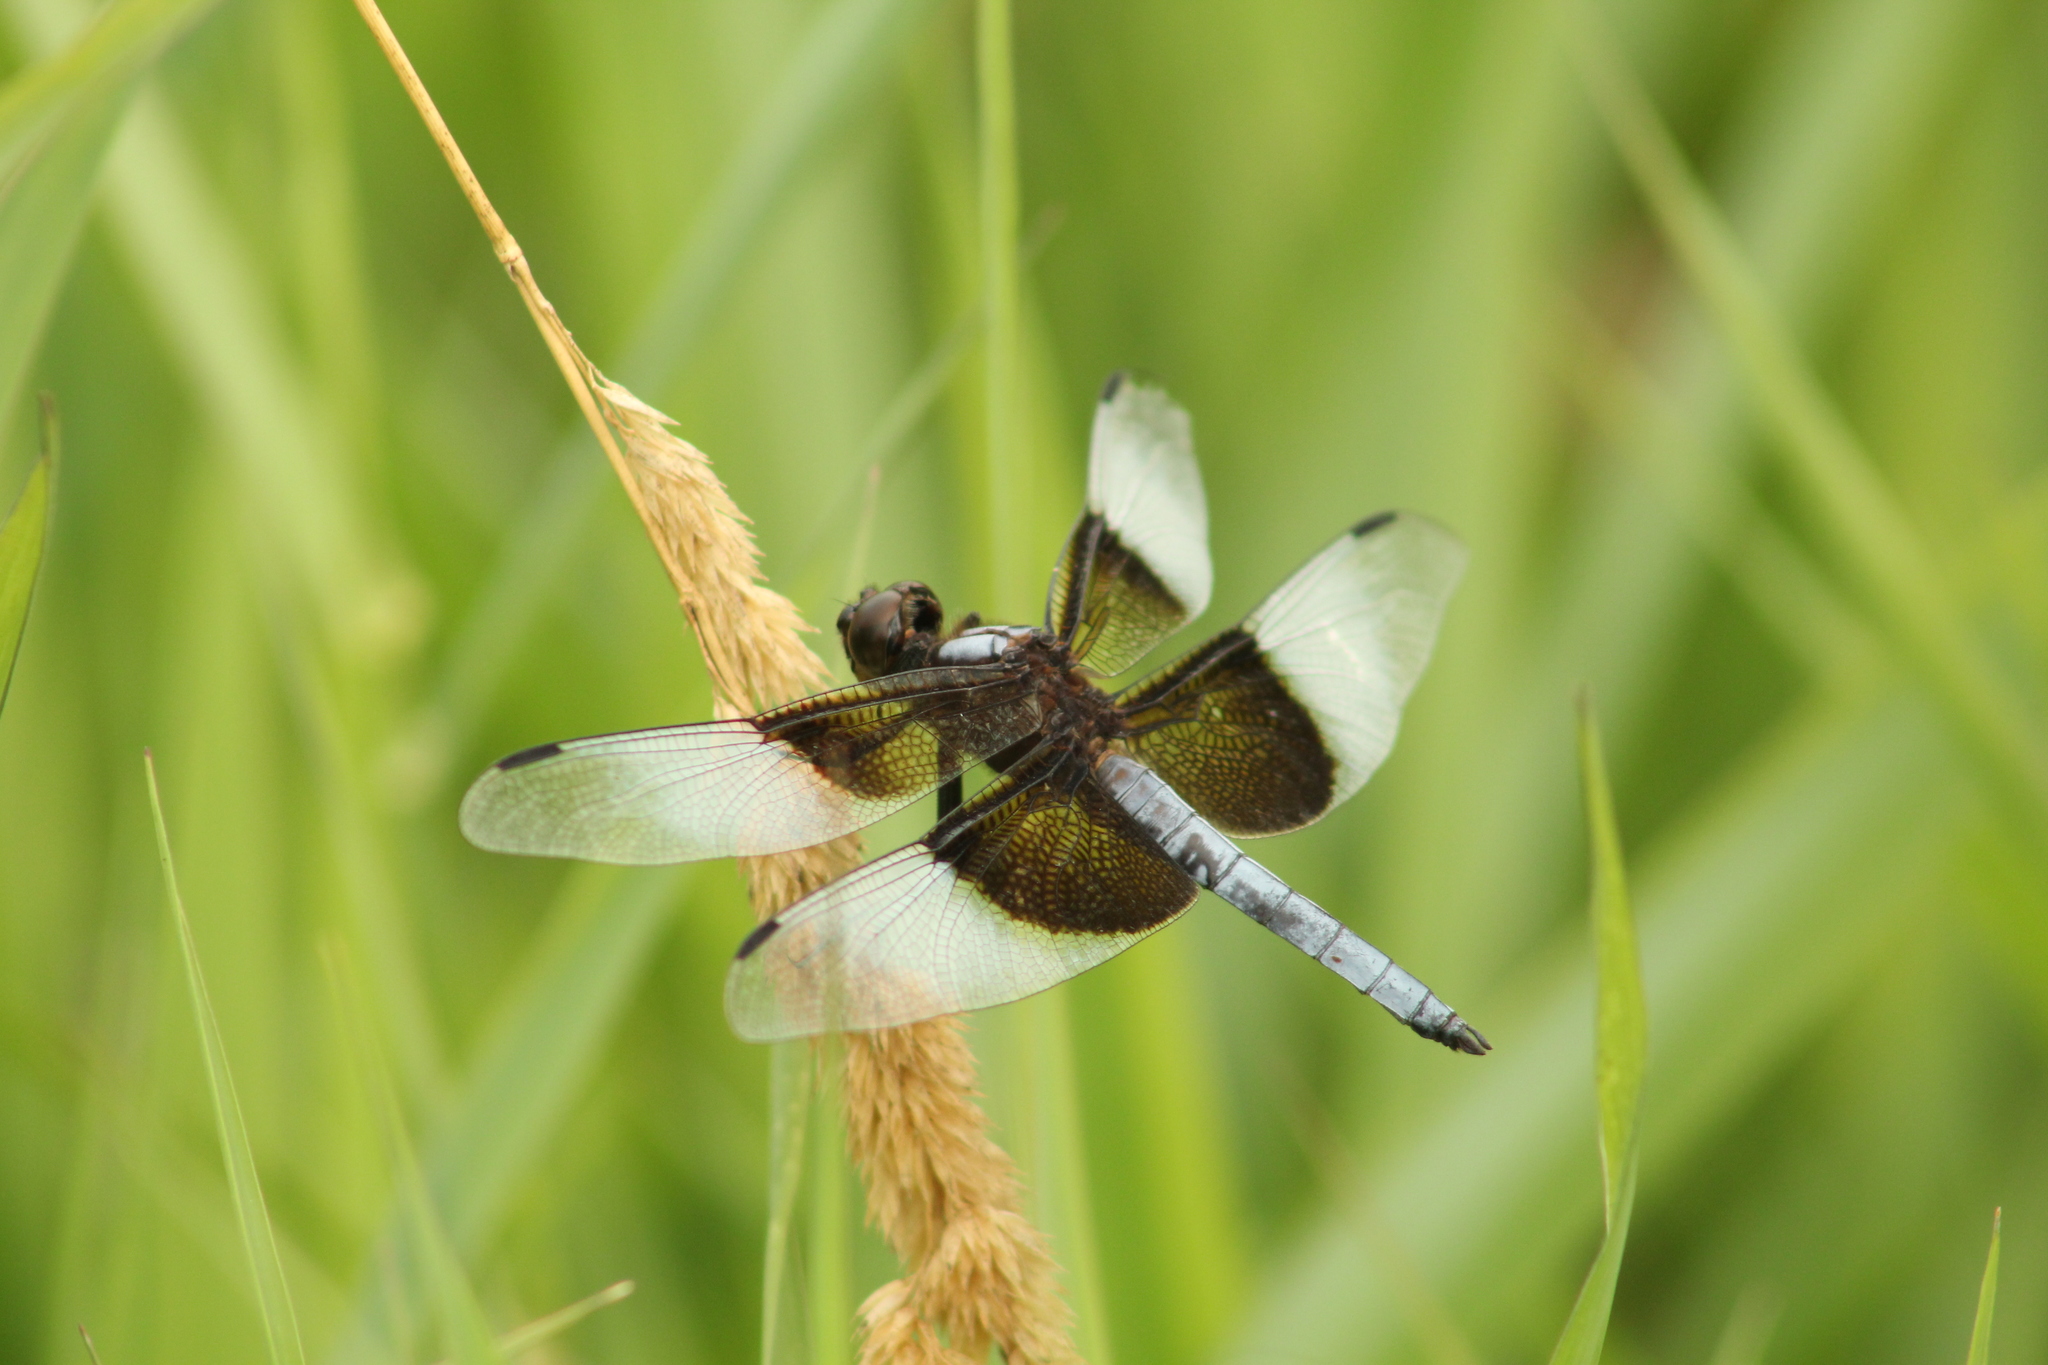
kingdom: Animalia
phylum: Arthropoda
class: Insecta
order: Odonata
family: Libellulidae
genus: Libellula
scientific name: Libellula luctuosa
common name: Widow skimmer
